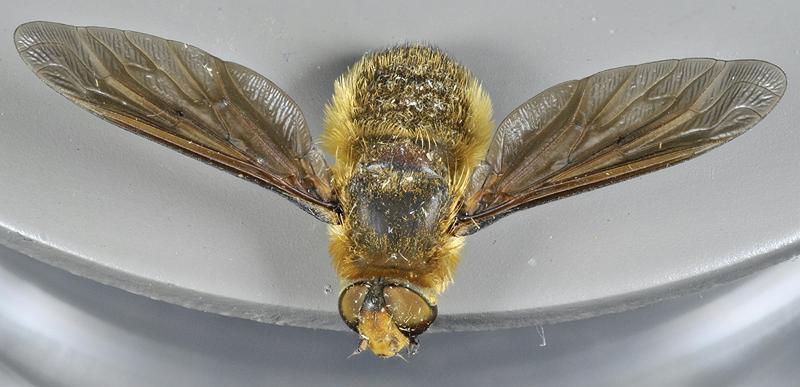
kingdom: Animalia
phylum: Arthropoda
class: Insecta
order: Diptera
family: Bombyliidae
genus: Poecilanthrax
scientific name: Poecilanthrax tegminipennis
